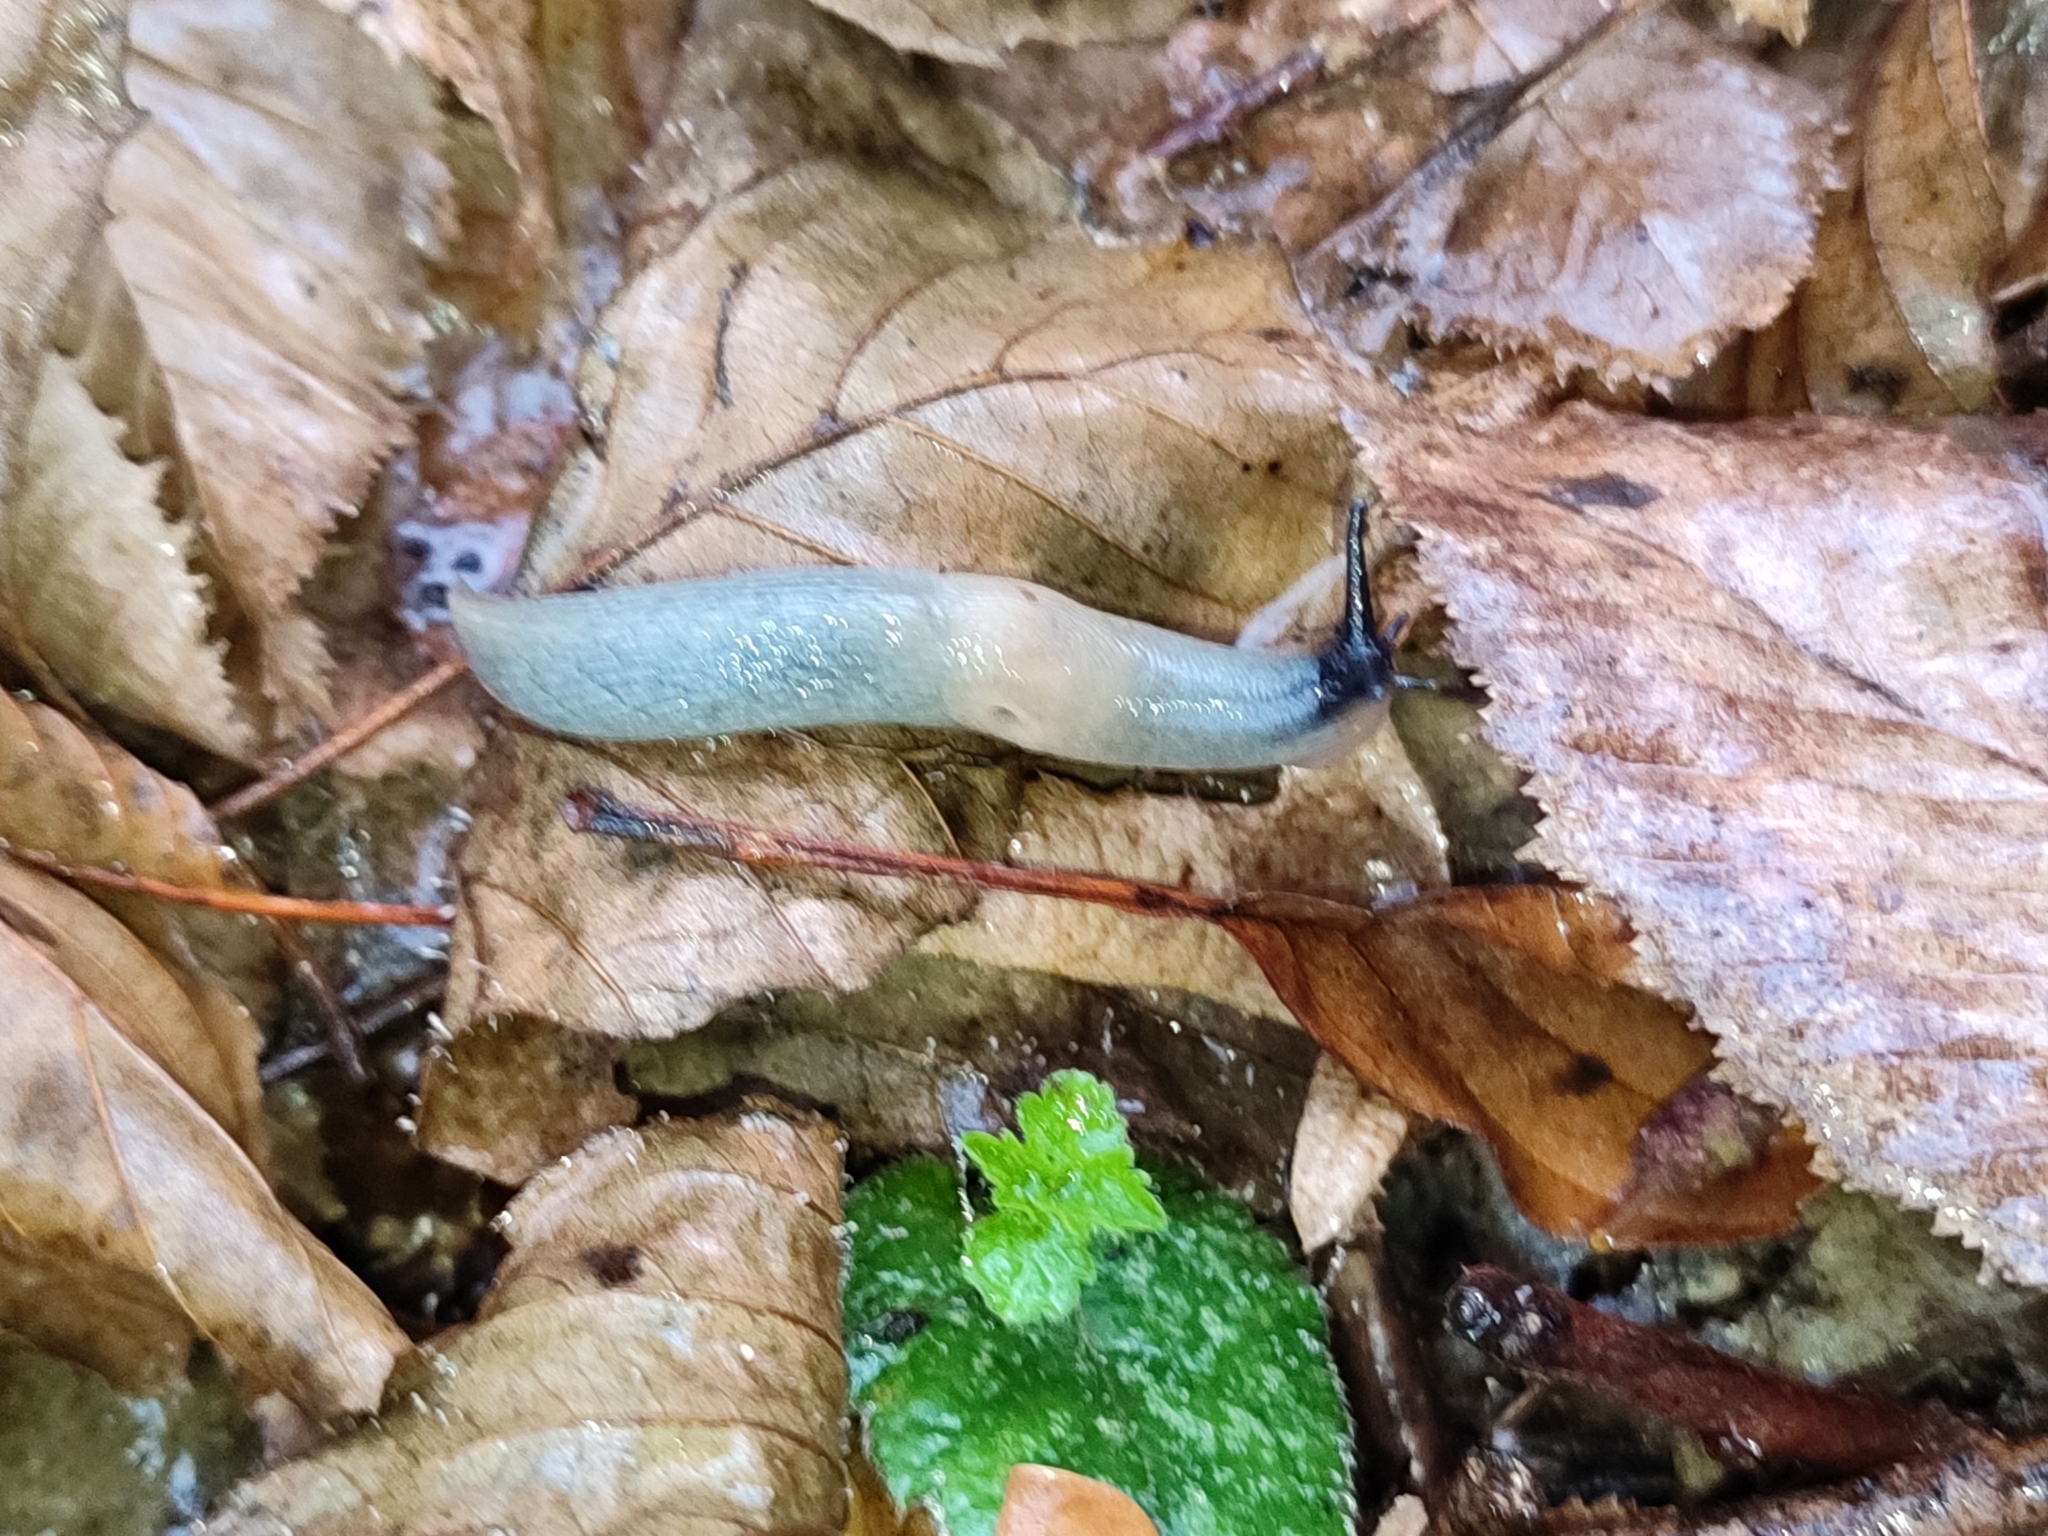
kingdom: Animalia
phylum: Mollusca
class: Gastropoda
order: Stylommatophora
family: Agriolimacidae
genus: Krynickillus
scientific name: Krynickillus melanocephalus
